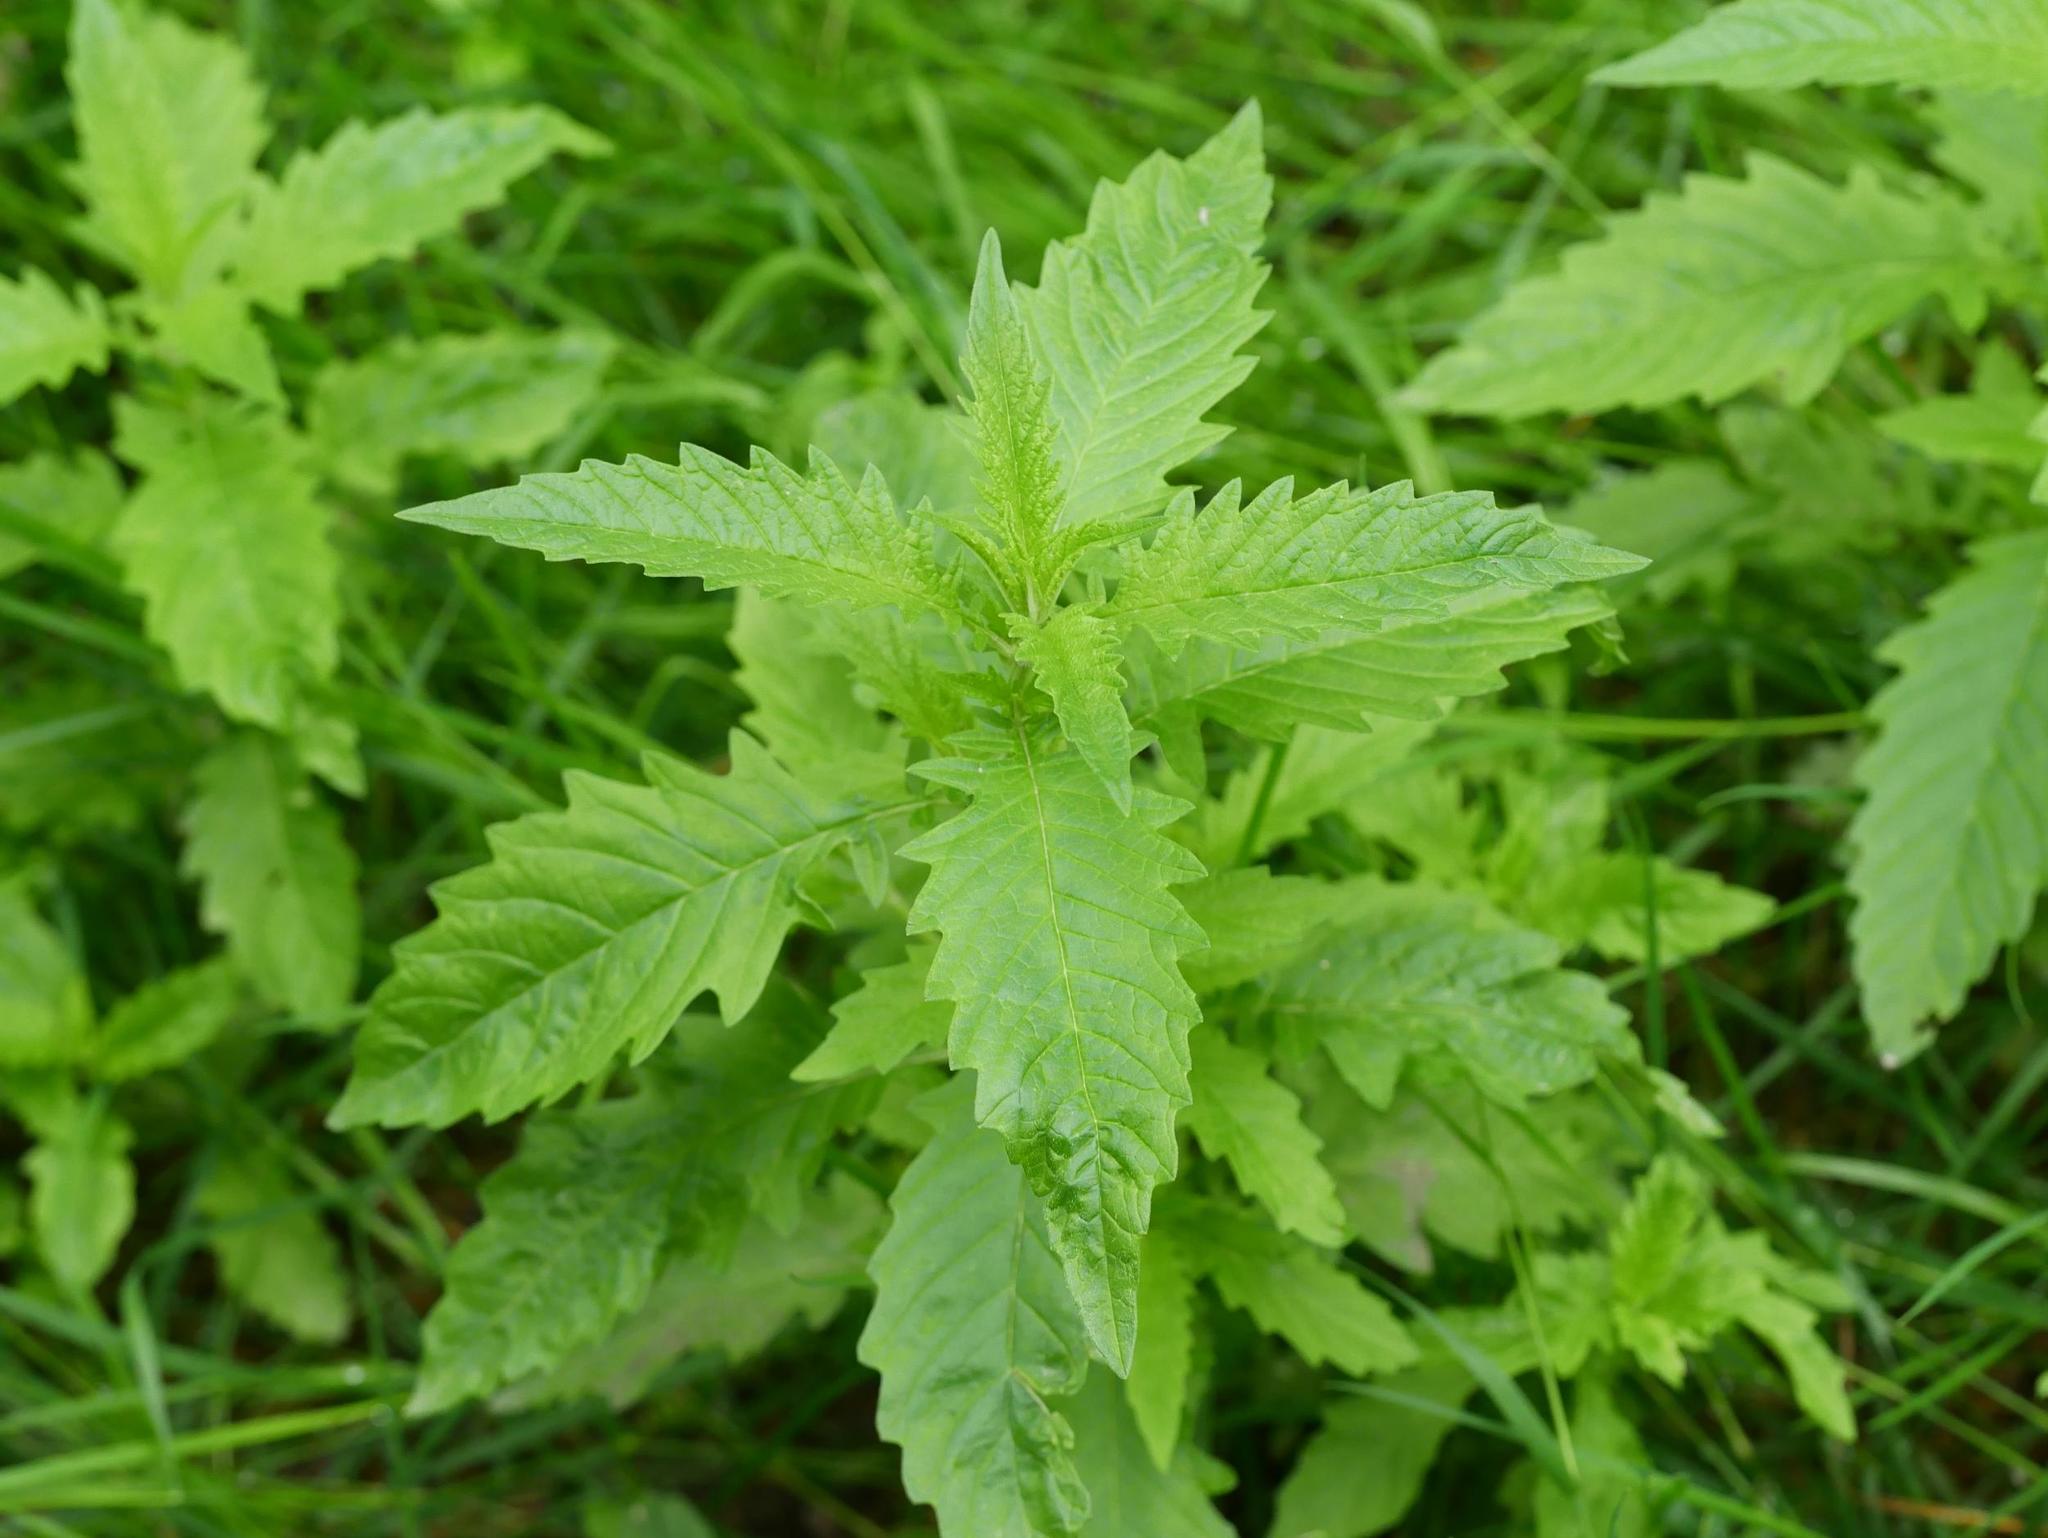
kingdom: Plantae
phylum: Tracheophyta
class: Magnoliopsida
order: Lamiales
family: Lamiaceae
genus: Lycopus
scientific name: Lycopus europaeus
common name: European bugleweed
